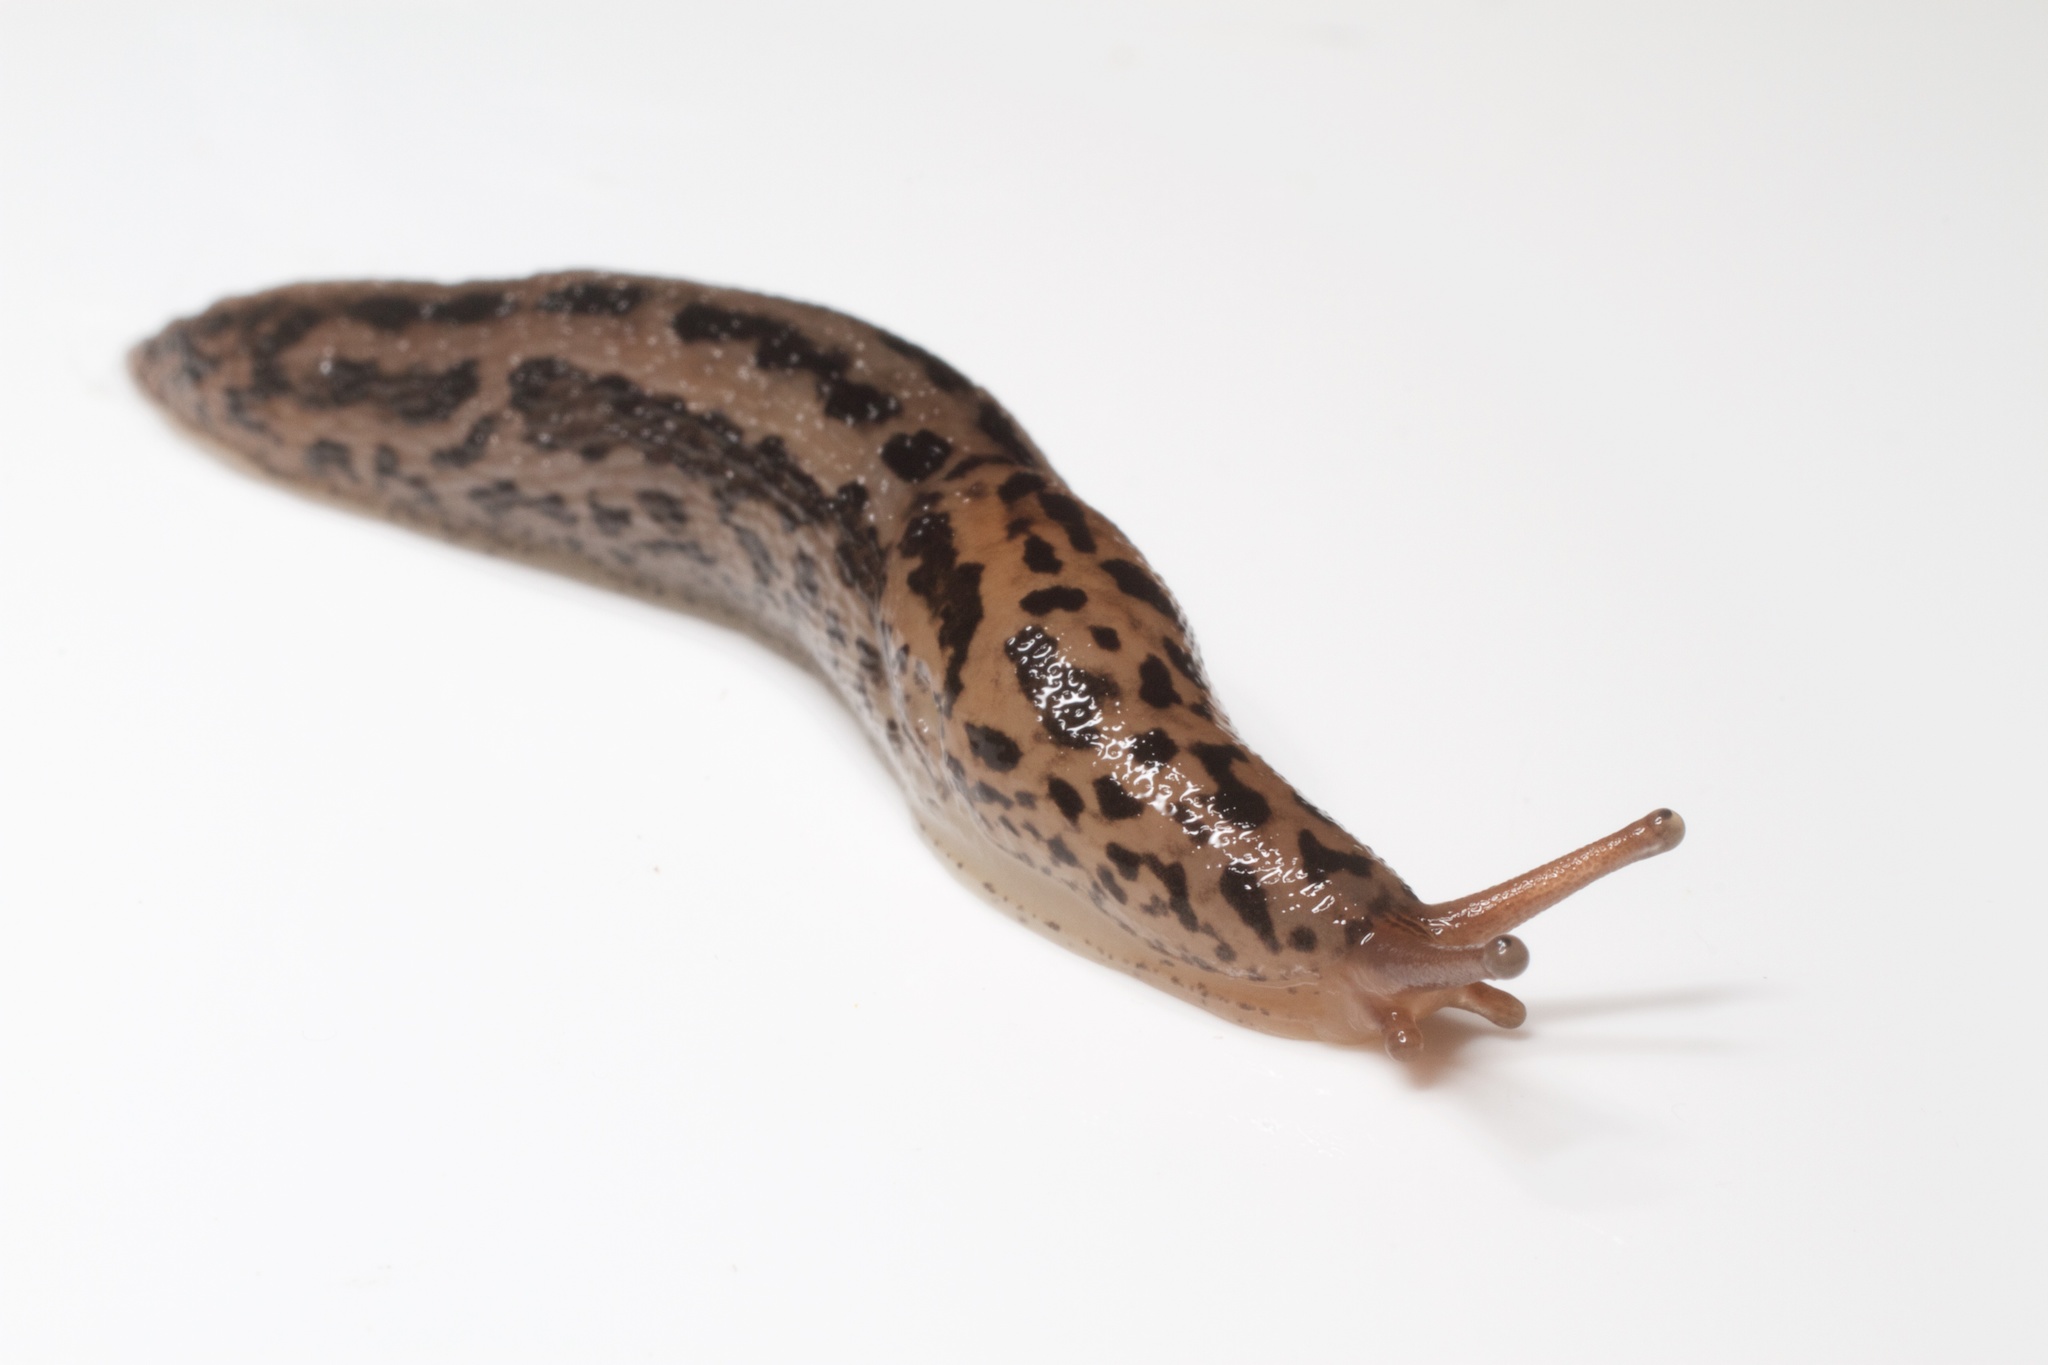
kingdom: Animalia
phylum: Mollusca
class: Gastropoda
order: Stylommatophora
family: Limacidae
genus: Limax
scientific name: Limax maximus
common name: Great grey slug
